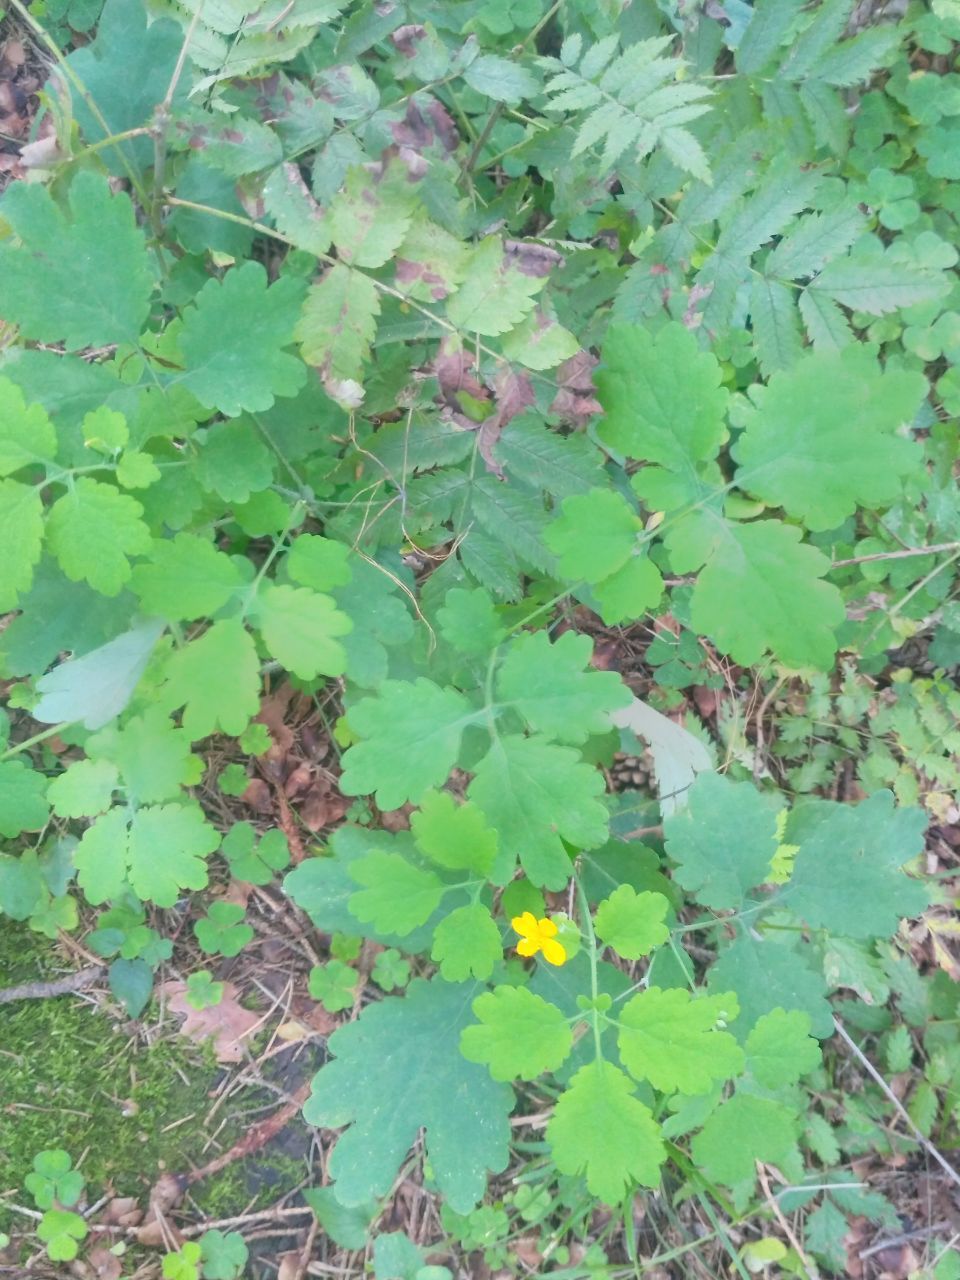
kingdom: Plantae
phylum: Tracheophyta
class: Magnoliopsida
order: Ranunculales
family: Papaveraceae
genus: Chelidonium
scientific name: Chelidonium majus
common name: Greater celandine
